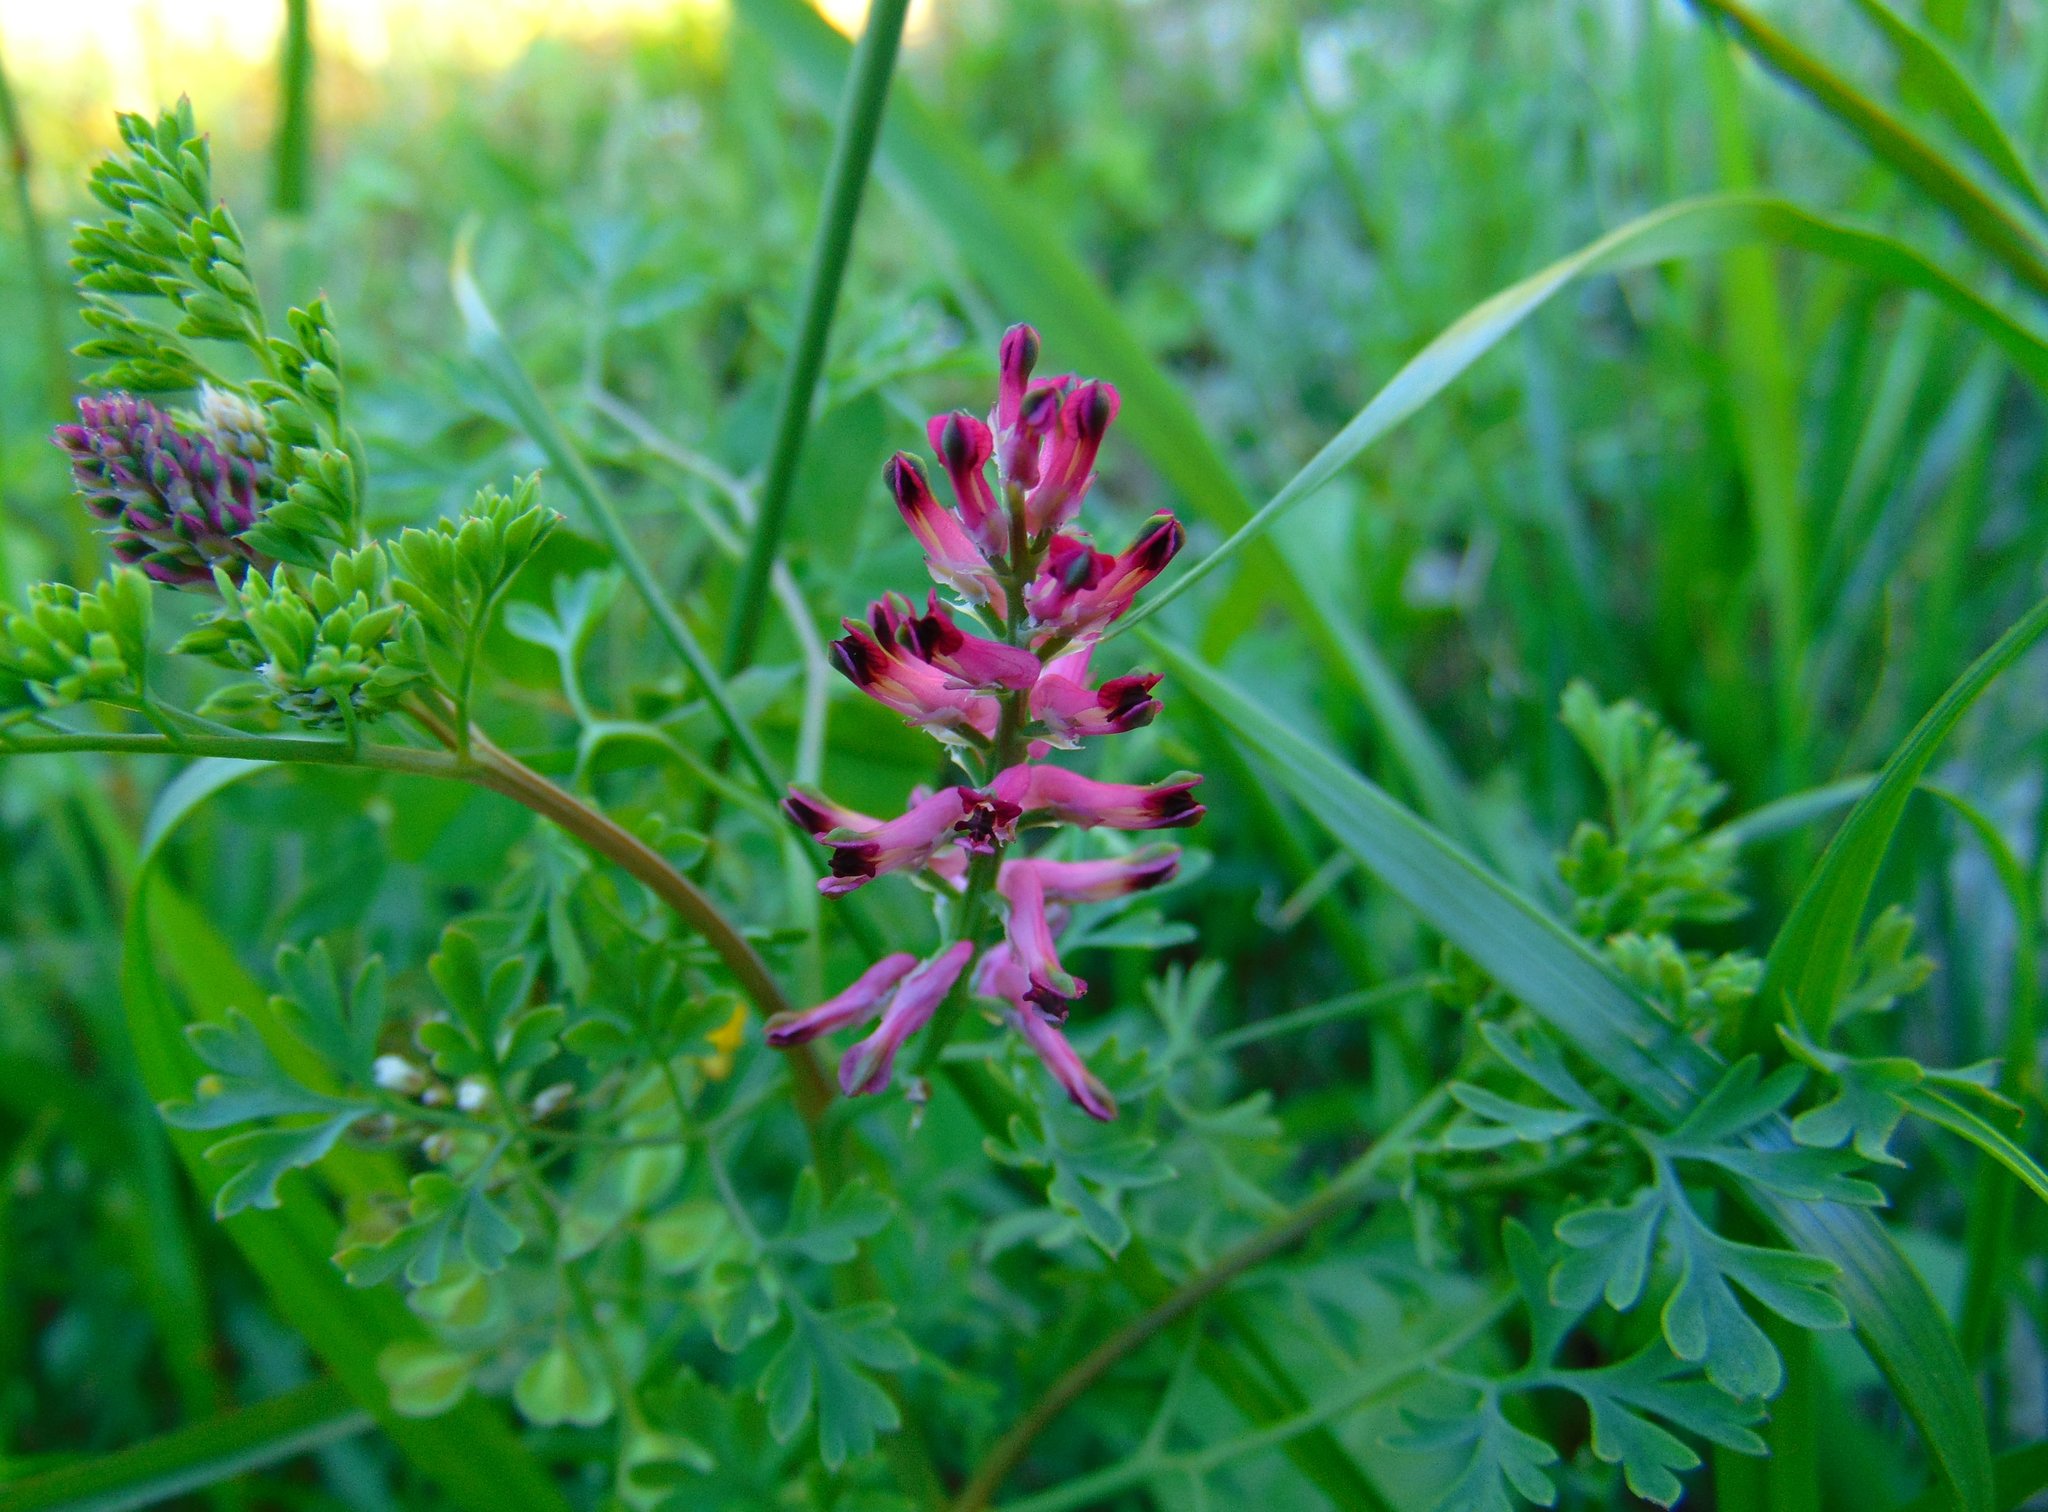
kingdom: Plantae
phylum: Tracheophyta
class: Magnoliopsida
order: Ranunculales
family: Papaveraceae
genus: Fumaria
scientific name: Fumaria officinalis
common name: Common fumitory
